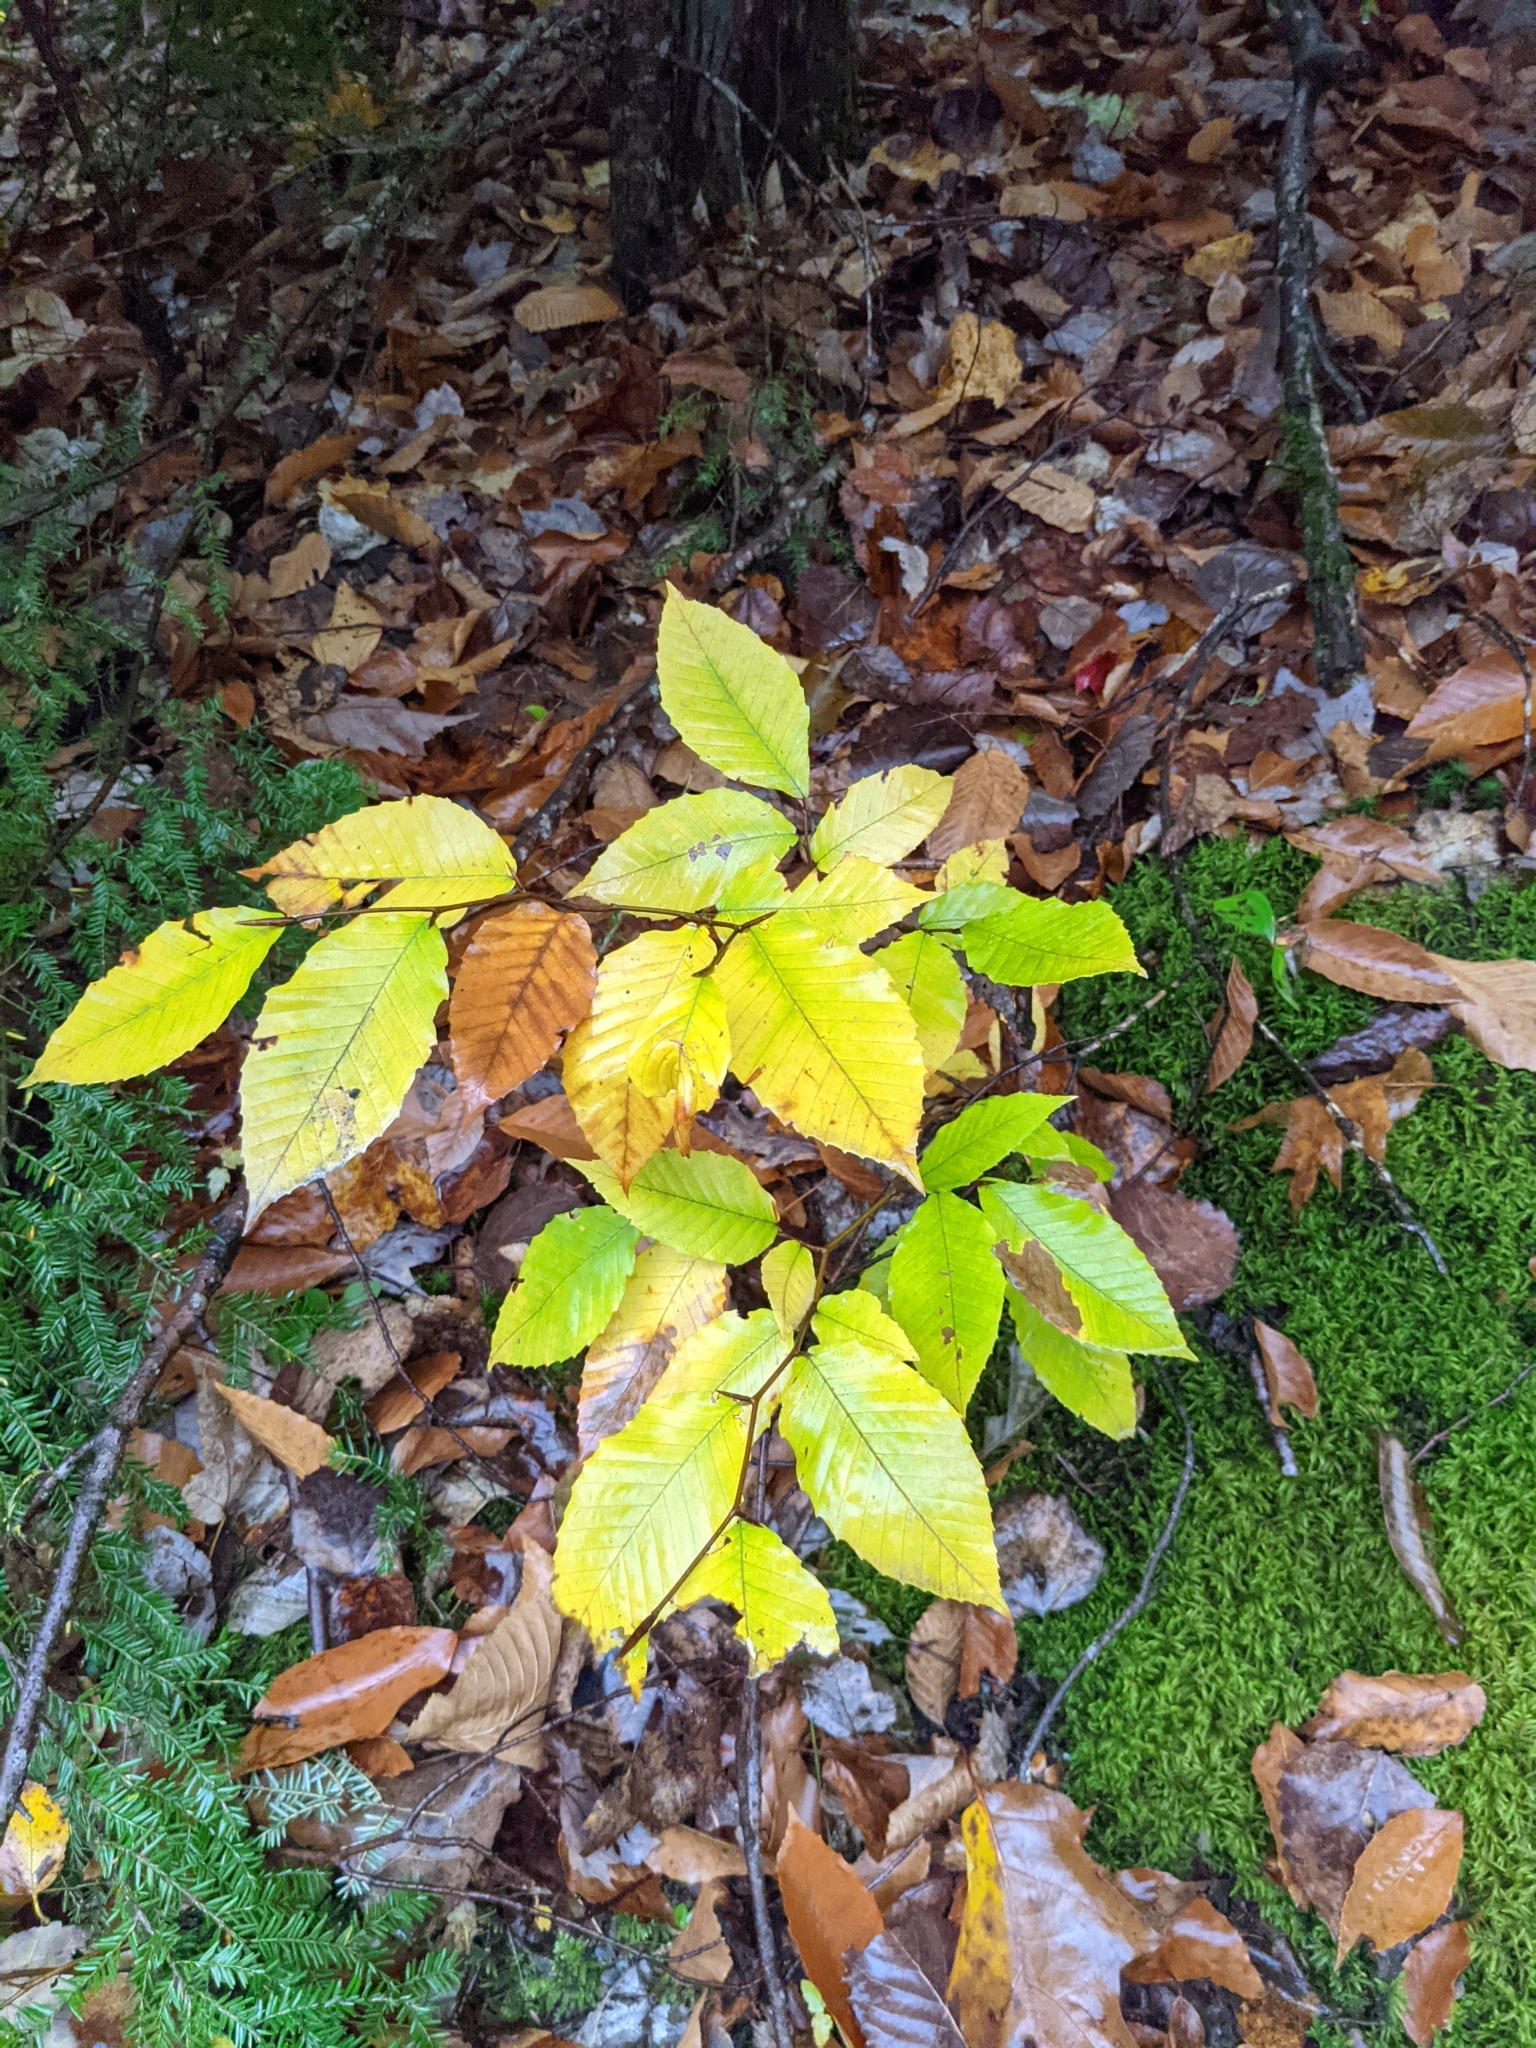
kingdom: Plantae
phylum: Tracheophyta
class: Magnoliopsida
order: Fagales
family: Fagaceae
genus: Fagus
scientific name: Fagus grandifolia
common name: American beech
